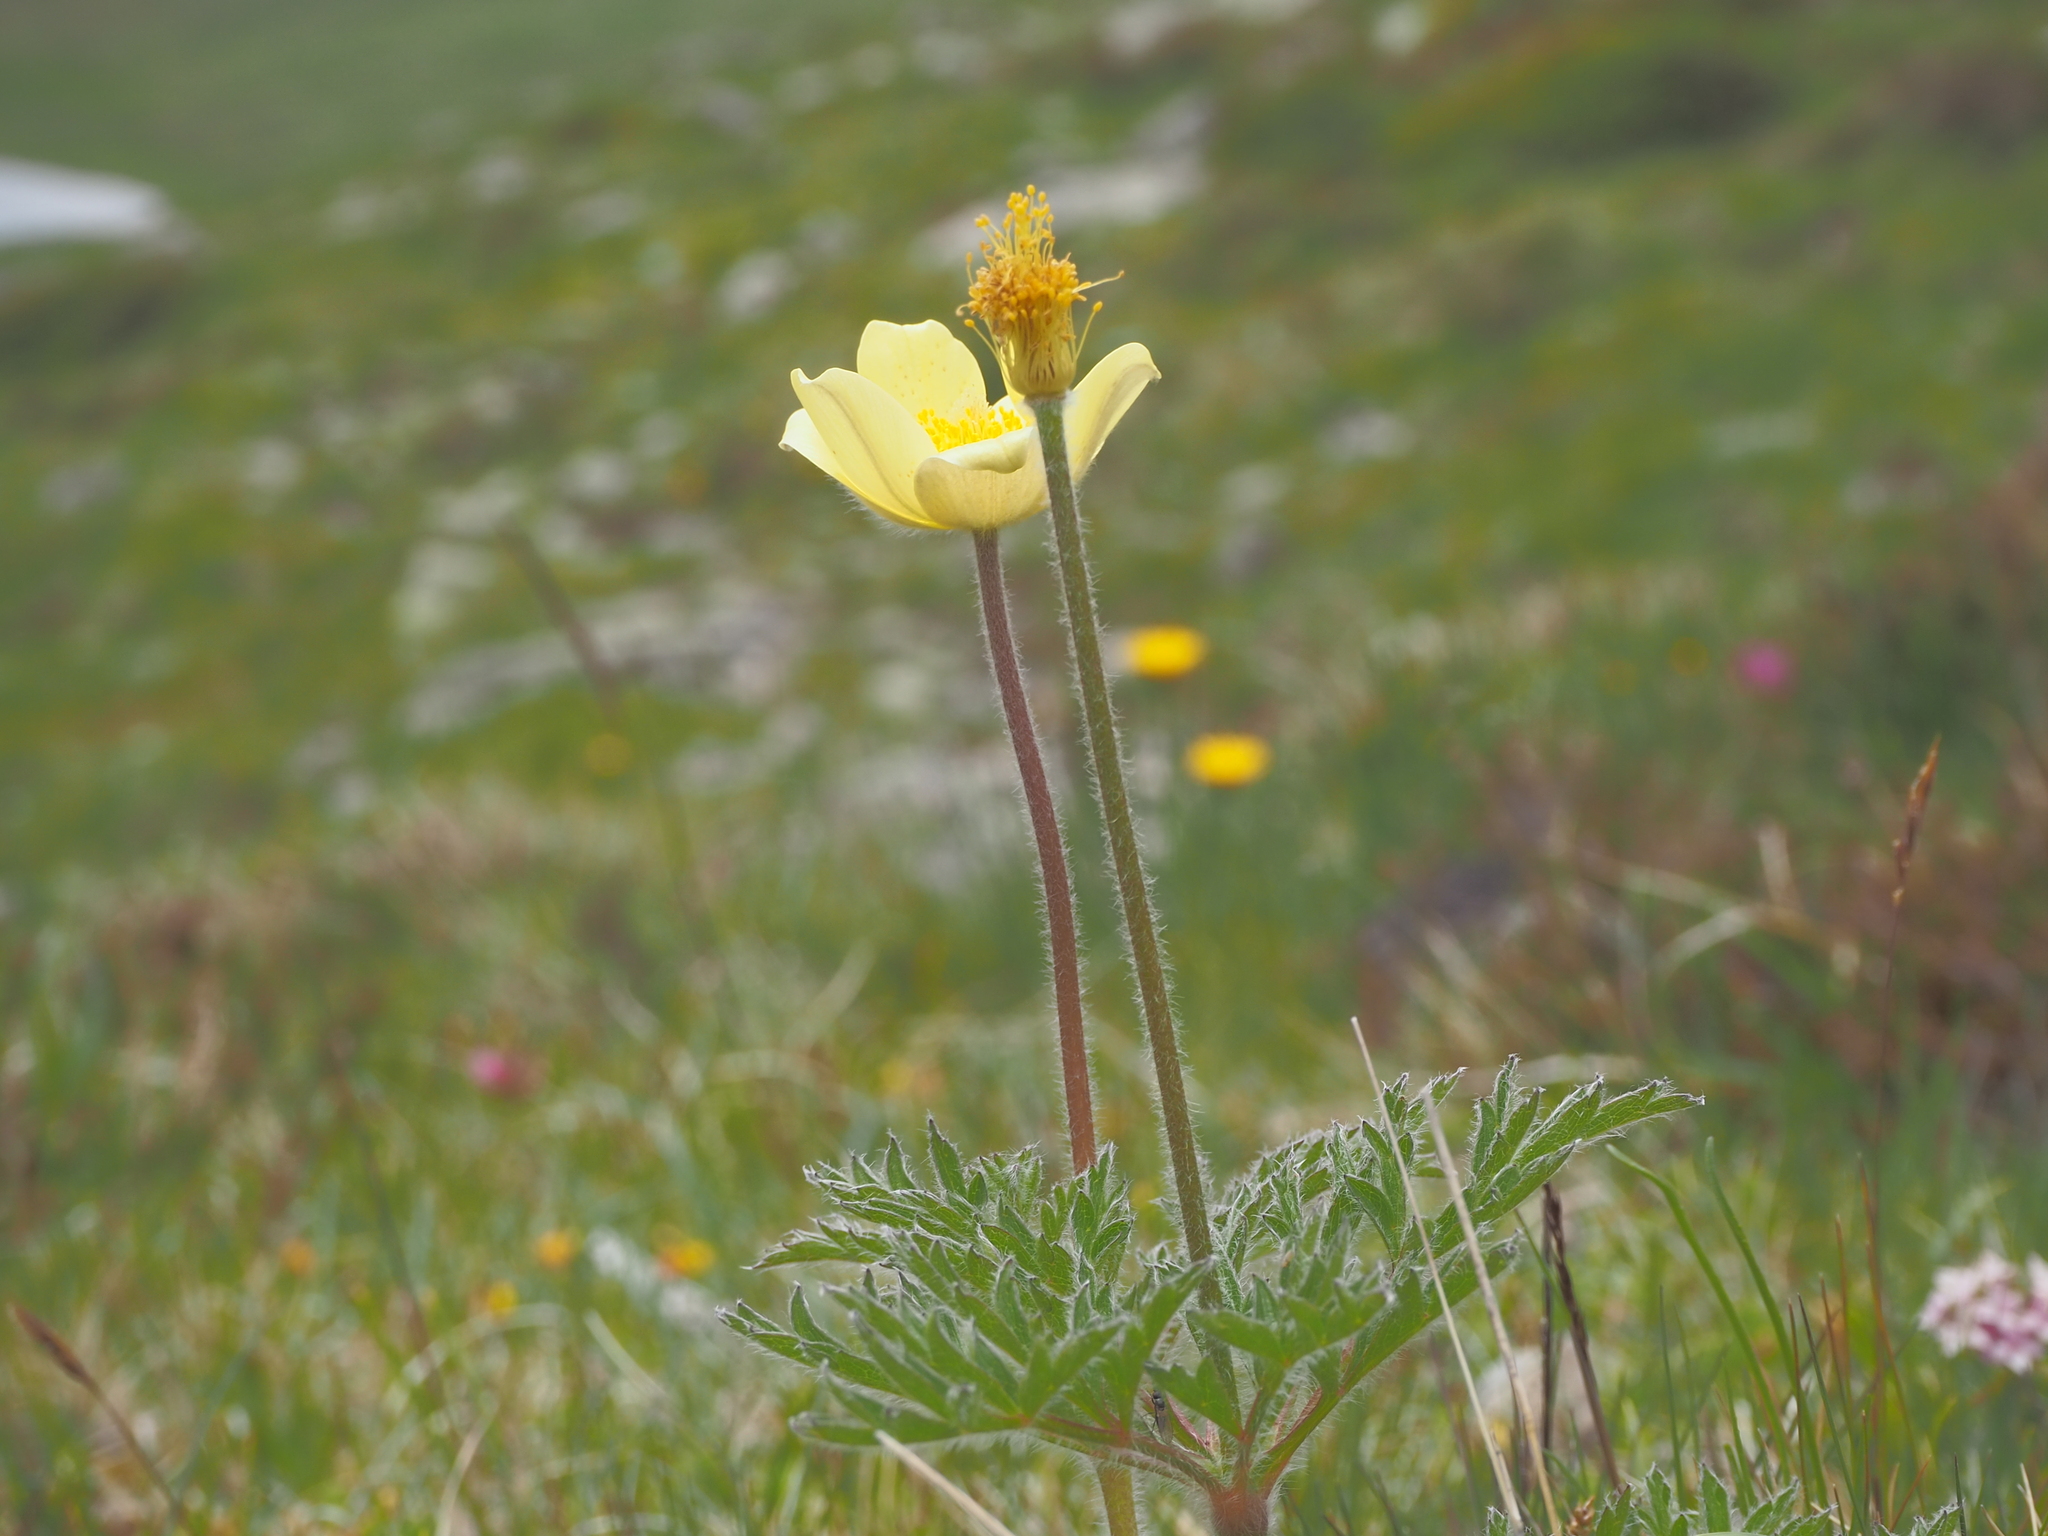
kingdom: Plantae
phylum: Tracheophyta
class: Magnoliopsida
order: Ranunculales
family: Ranunculaceae
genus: Pulsatilla
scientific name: Pulsatilla alpina
